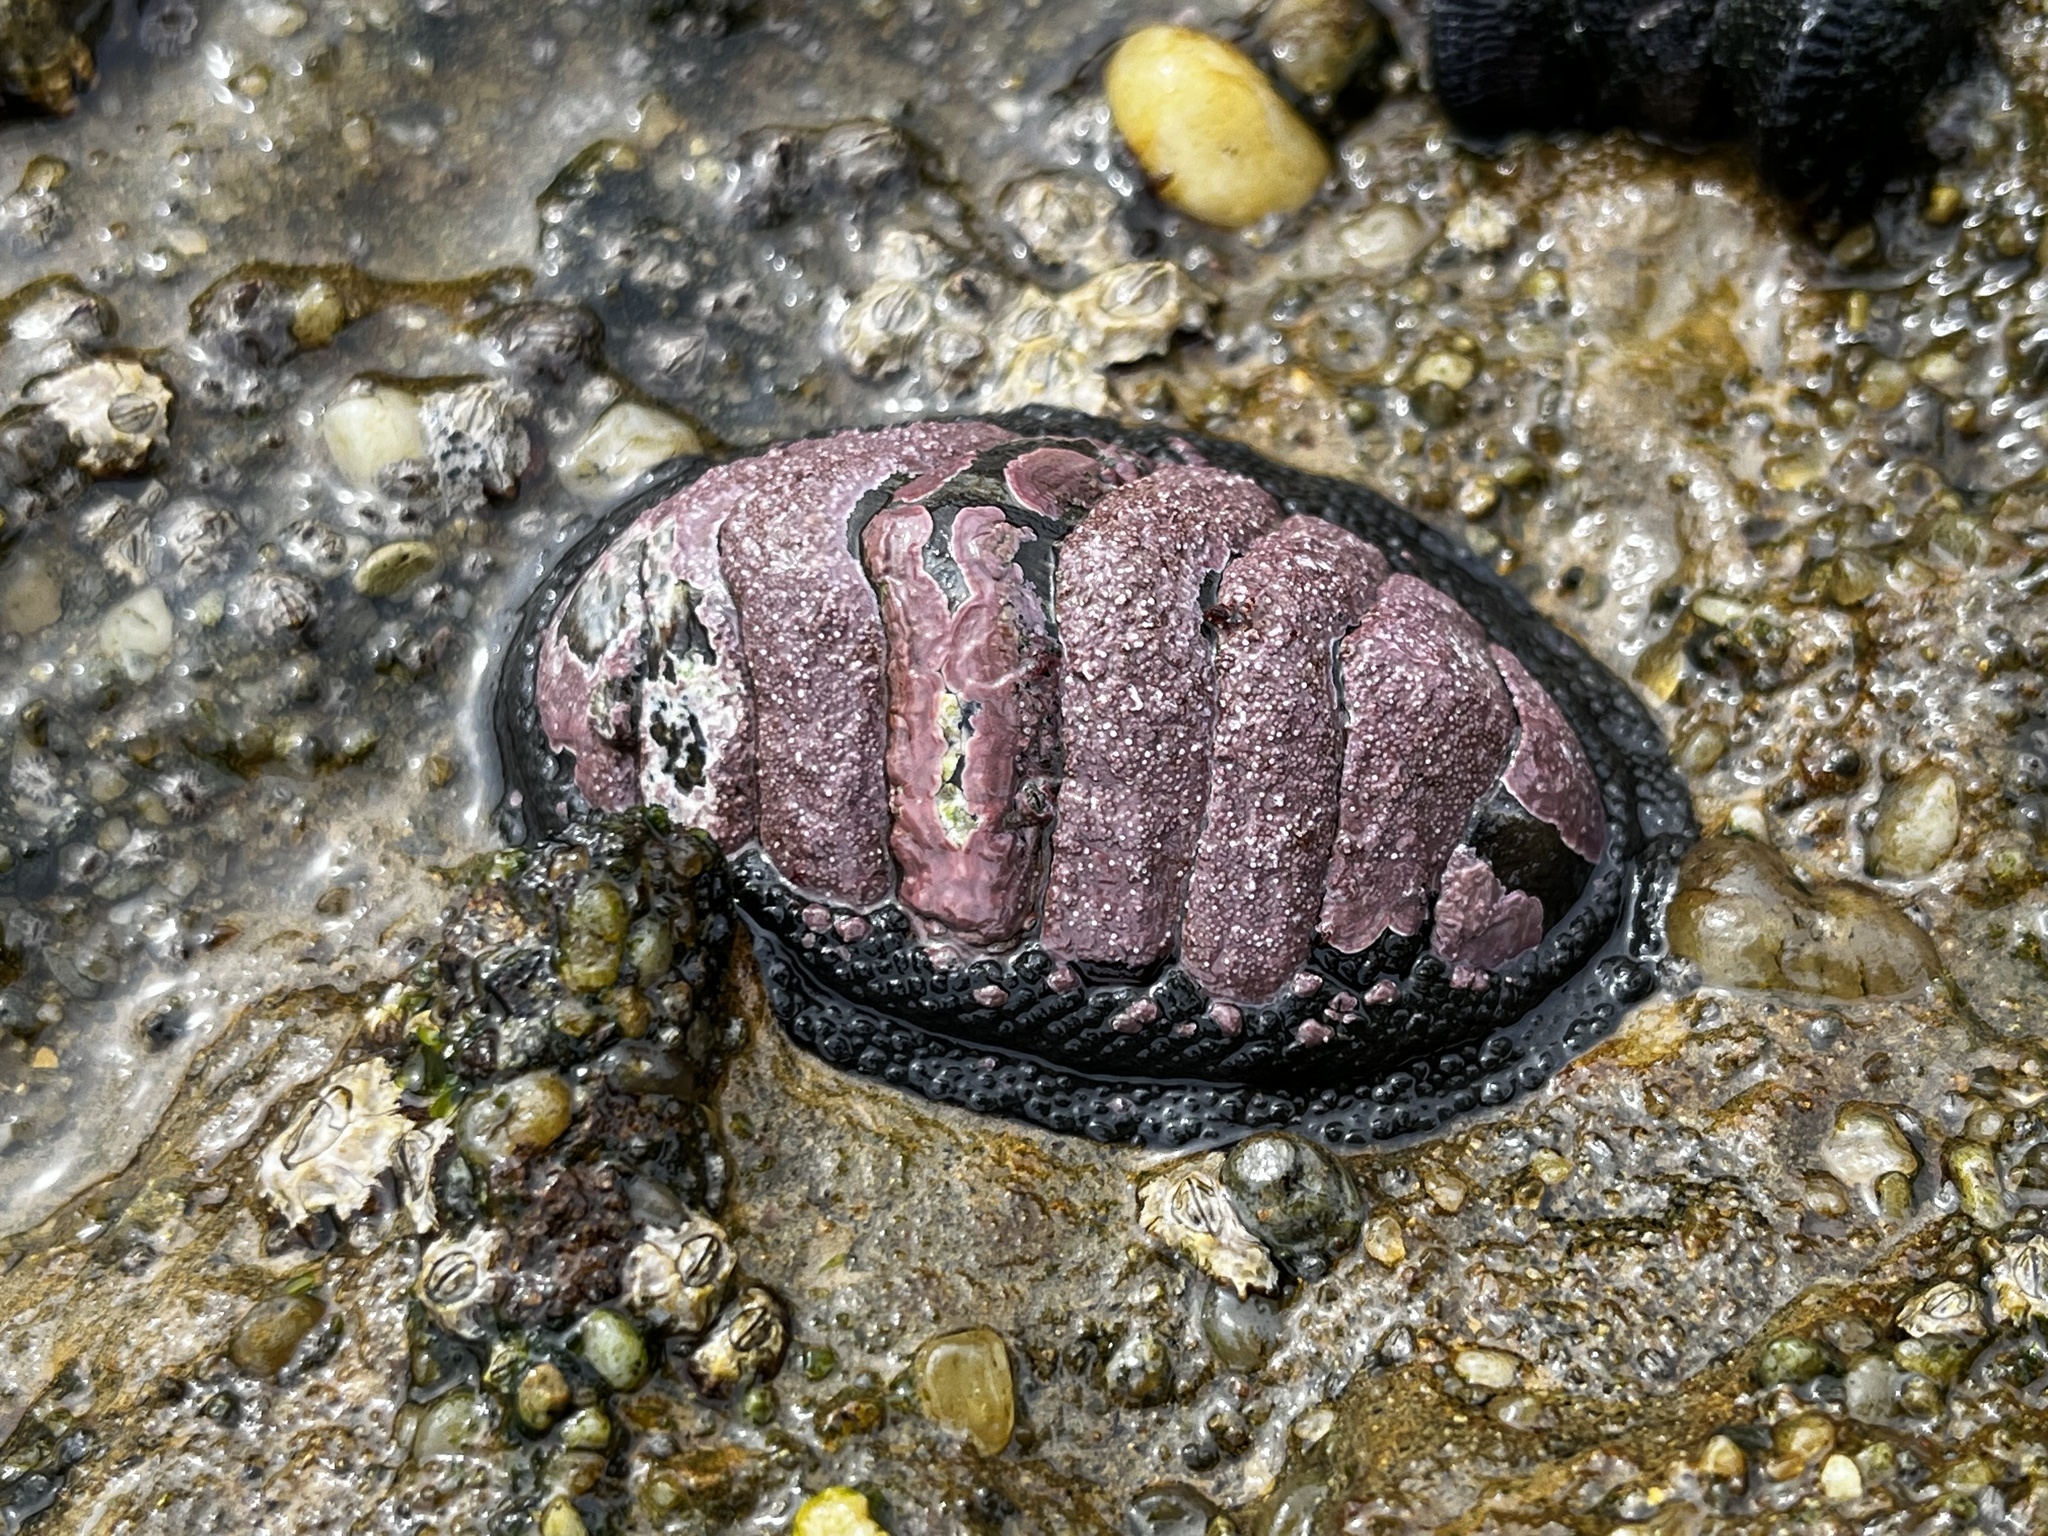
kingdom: Animalia
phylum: Mollusca
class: Polyplacophora
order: Chitonida
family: Chitonidae
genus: Chiton
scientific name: Chiton granosus
